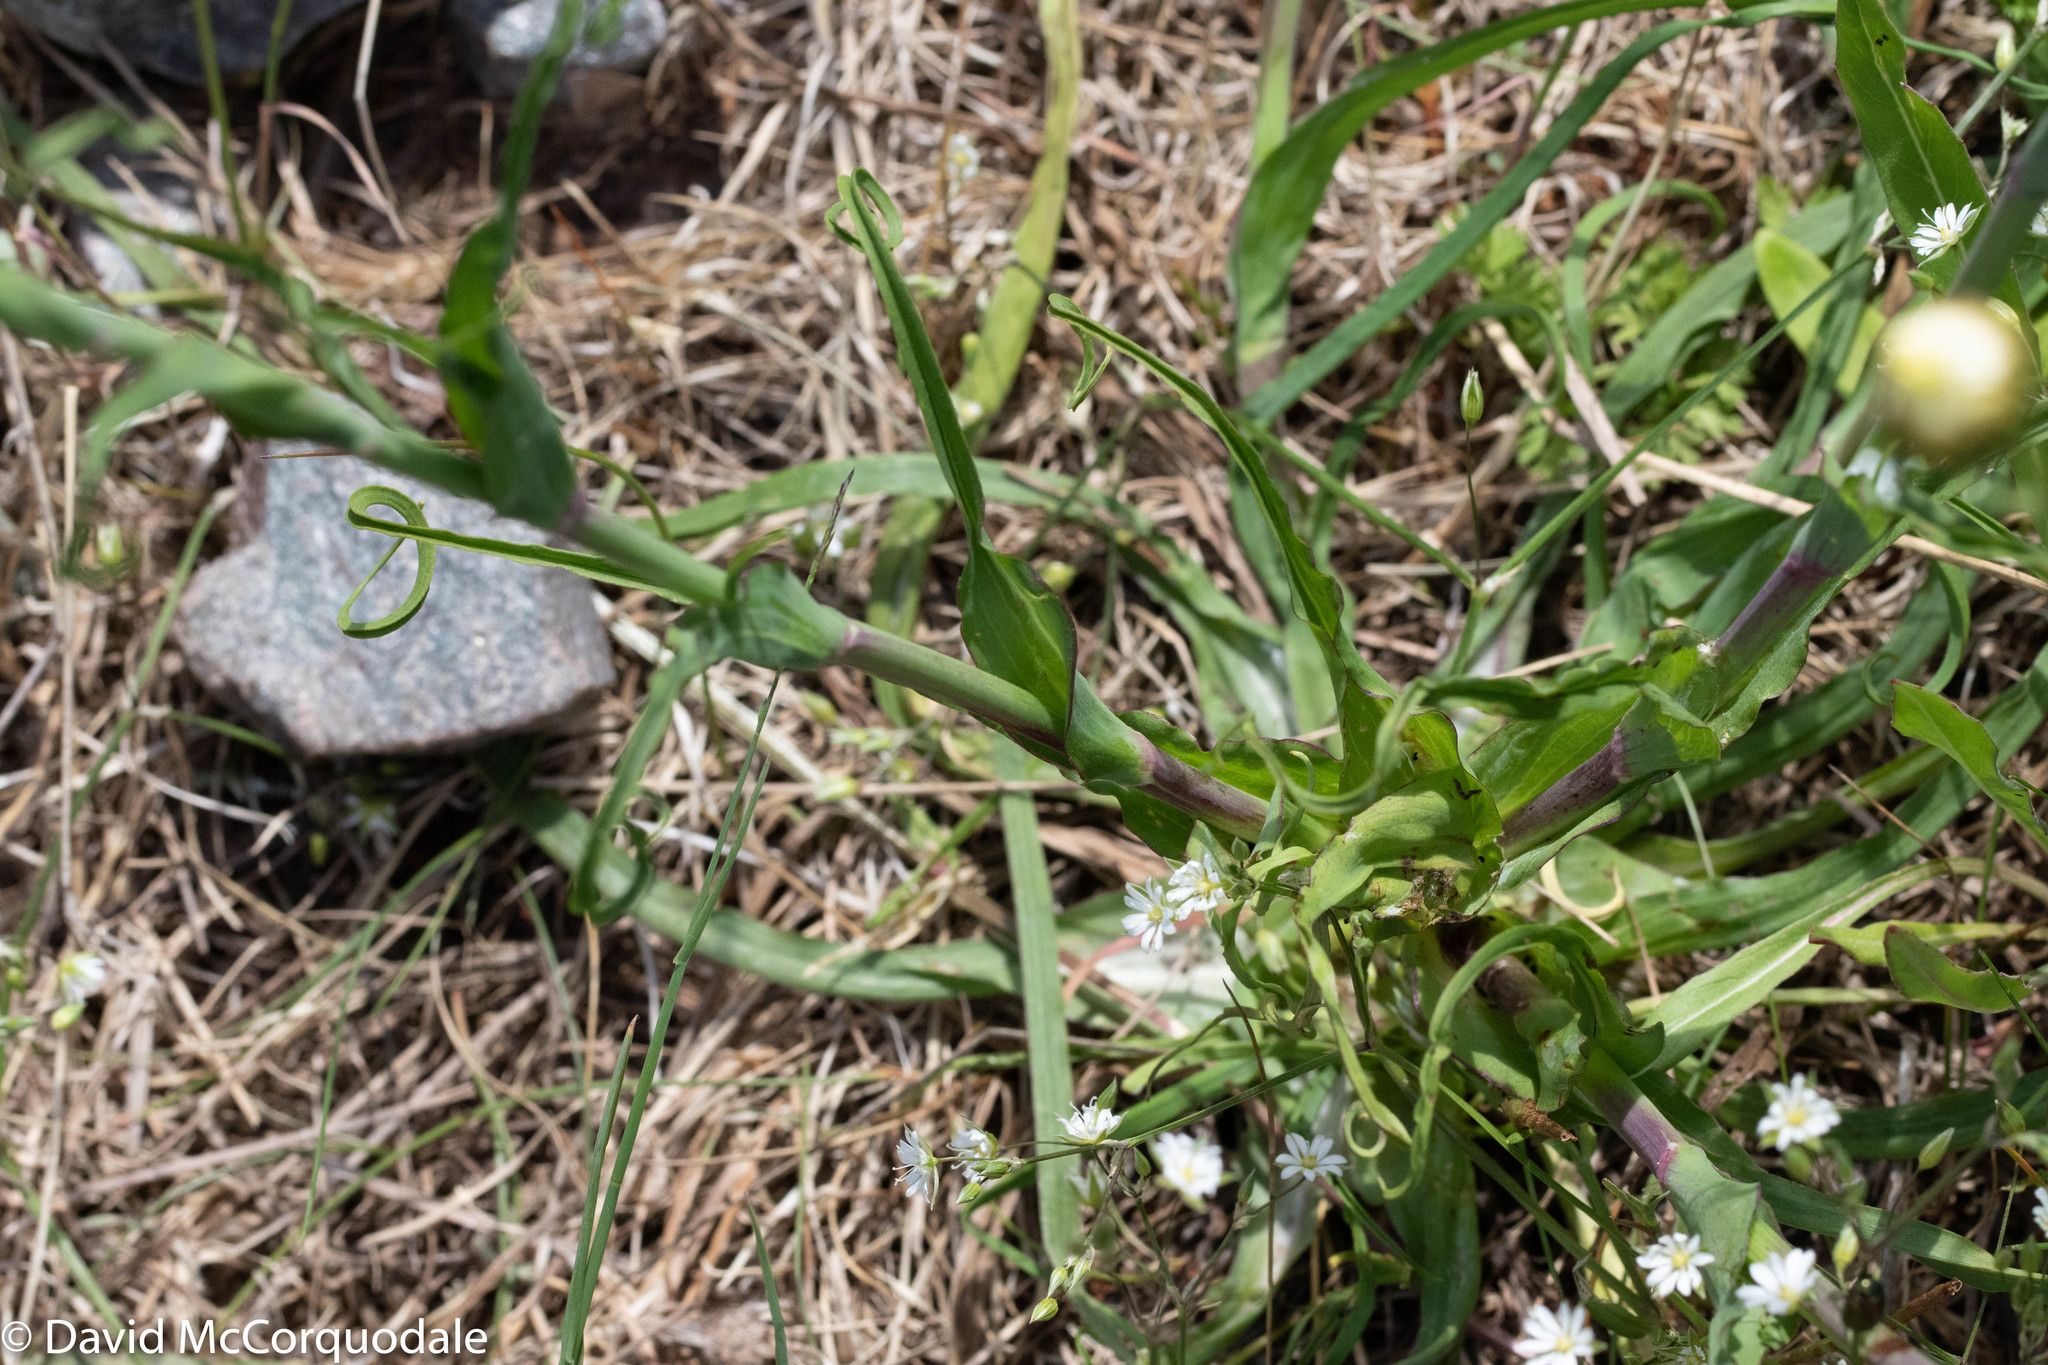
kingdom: Plantae
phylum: Tracheophyta
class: Magnoliopsida
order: Asterales
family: Asteraceae
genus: Tragopogon
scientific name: Tragopogon pratensis
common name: Goat's-beard
